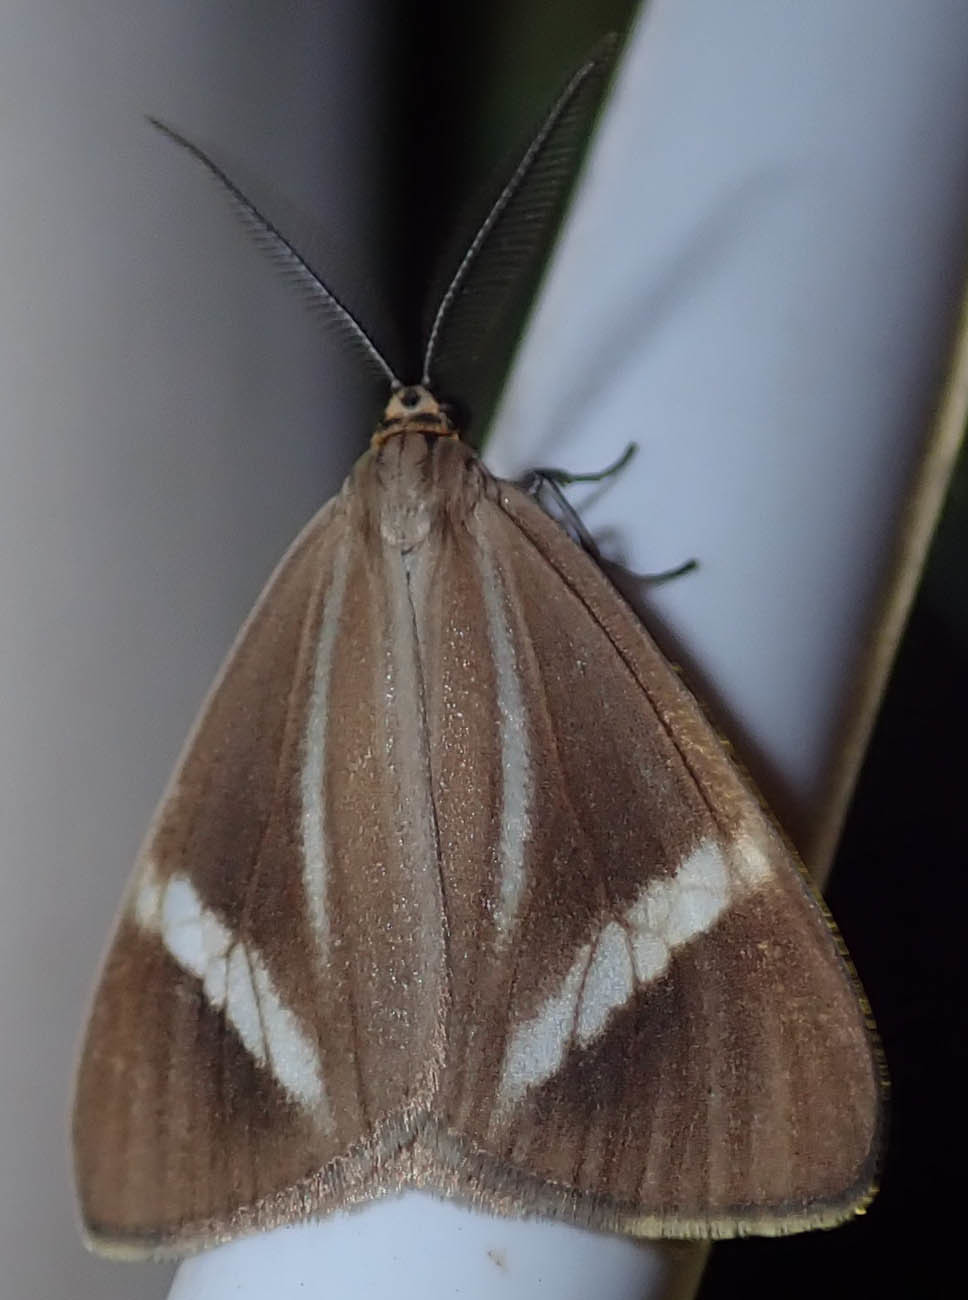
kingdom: Animalia
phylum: Arthropoda
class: Insecta
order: Lepidoptera
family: Erebidae
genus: Afronyctemera
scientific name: Afronyctemera
